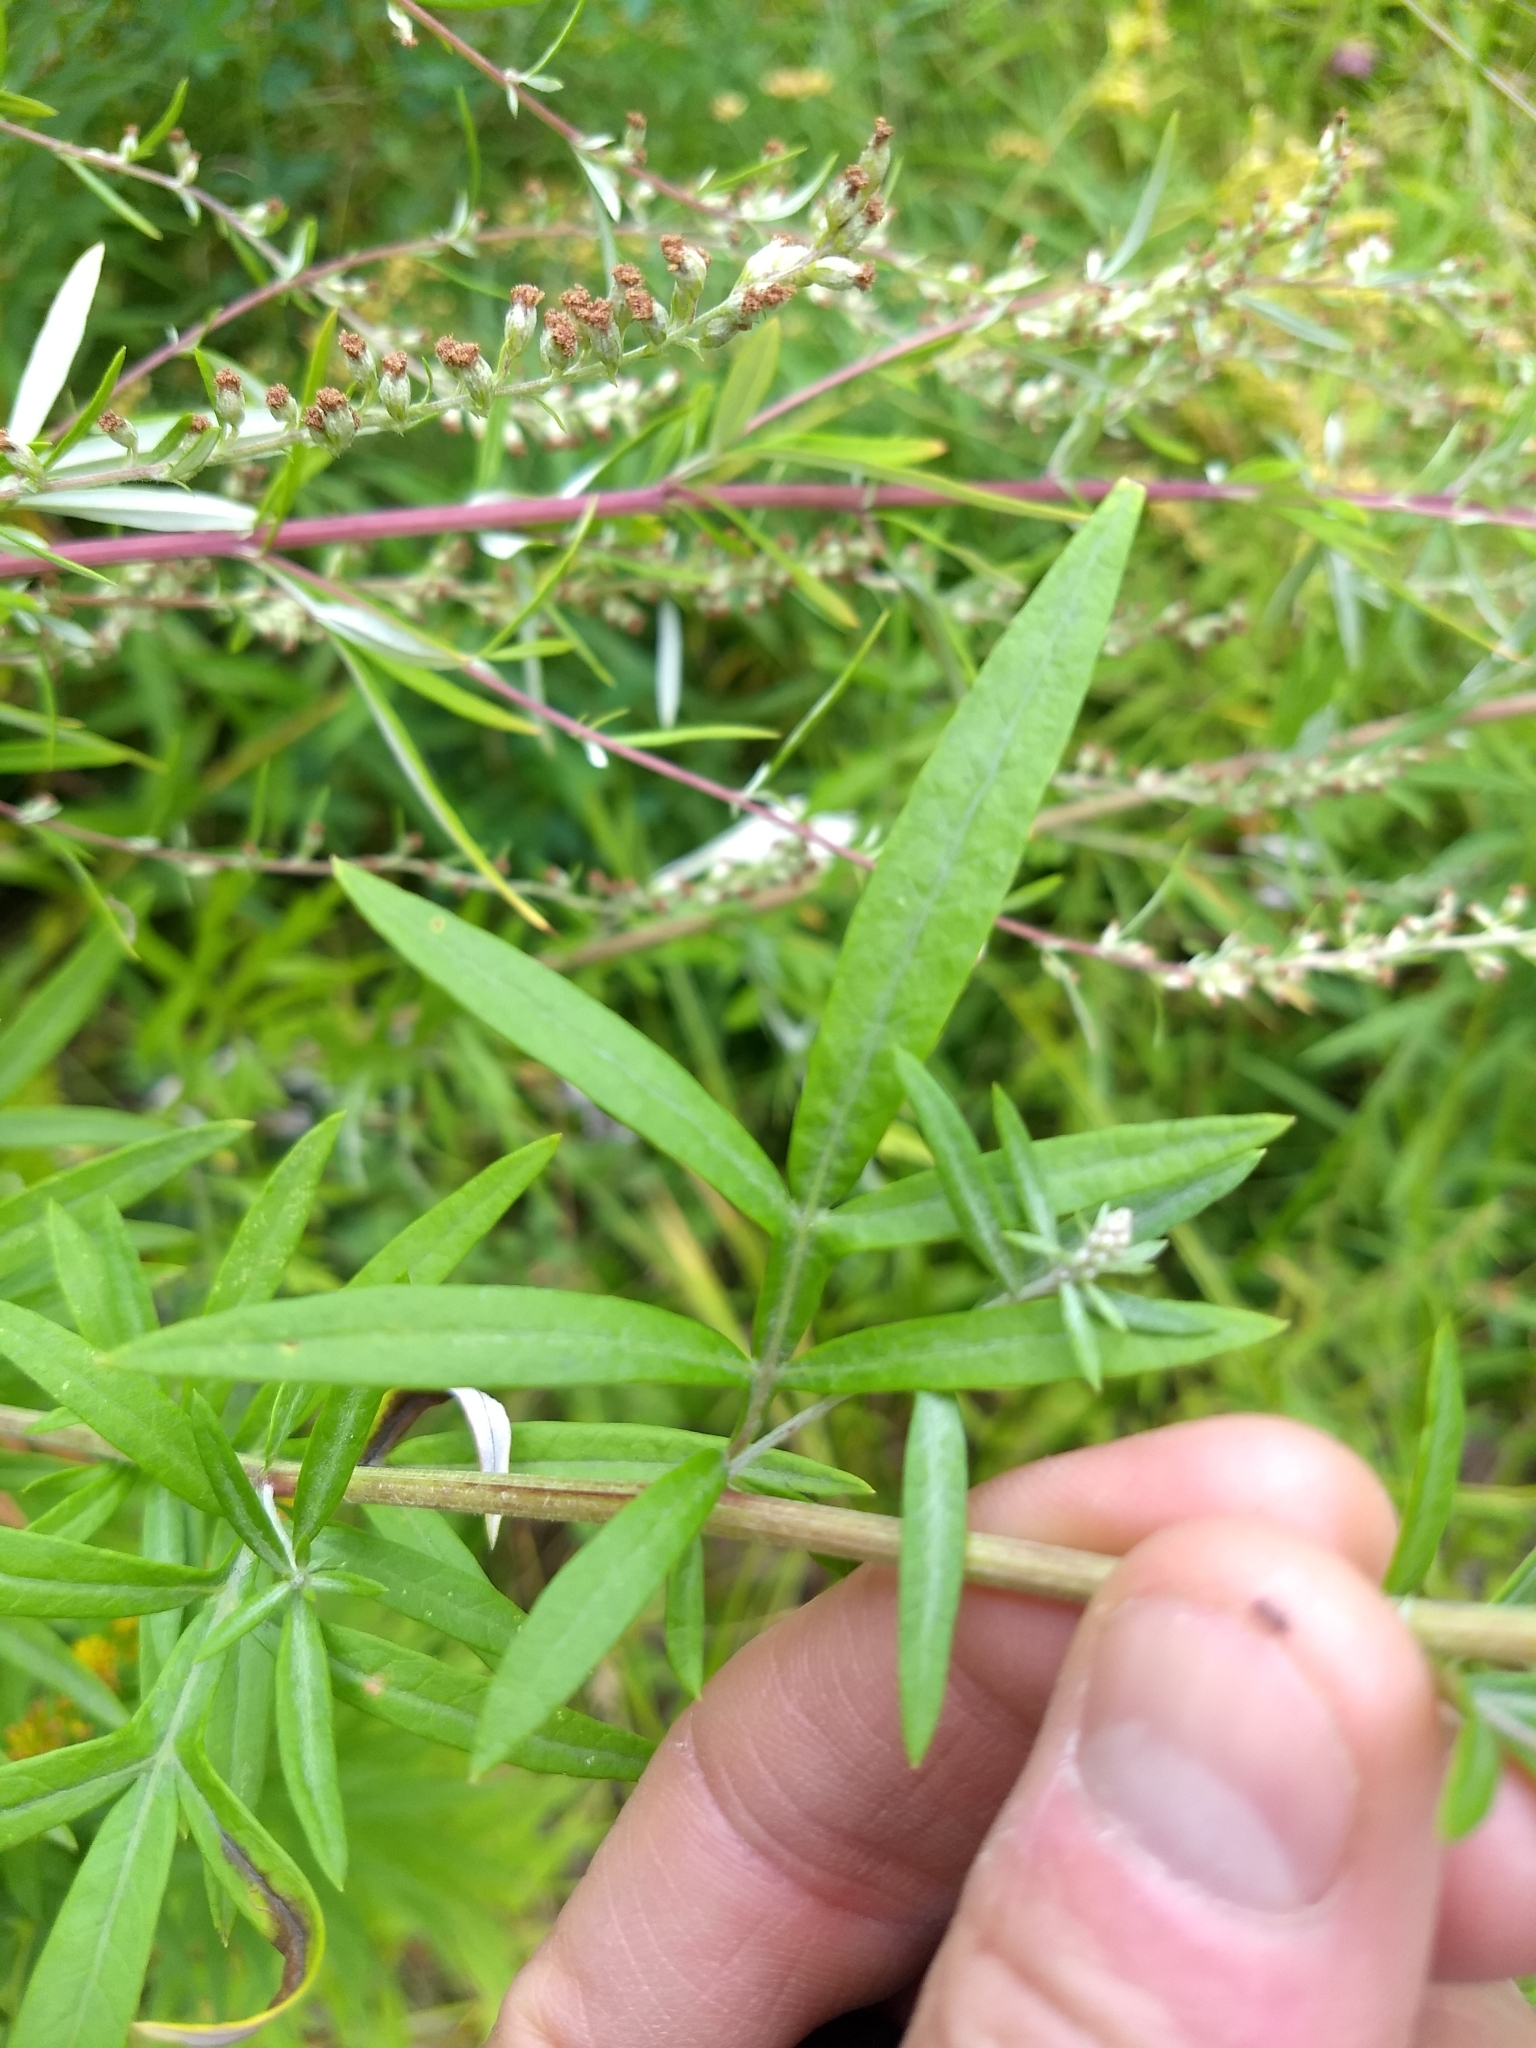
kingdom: Plantae
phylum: Tracheophyta
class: Magnoliopsida
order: Asterales
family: Asteraceae
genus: Artemisia
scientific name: Artemisia vulgaris
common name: Mugwort
